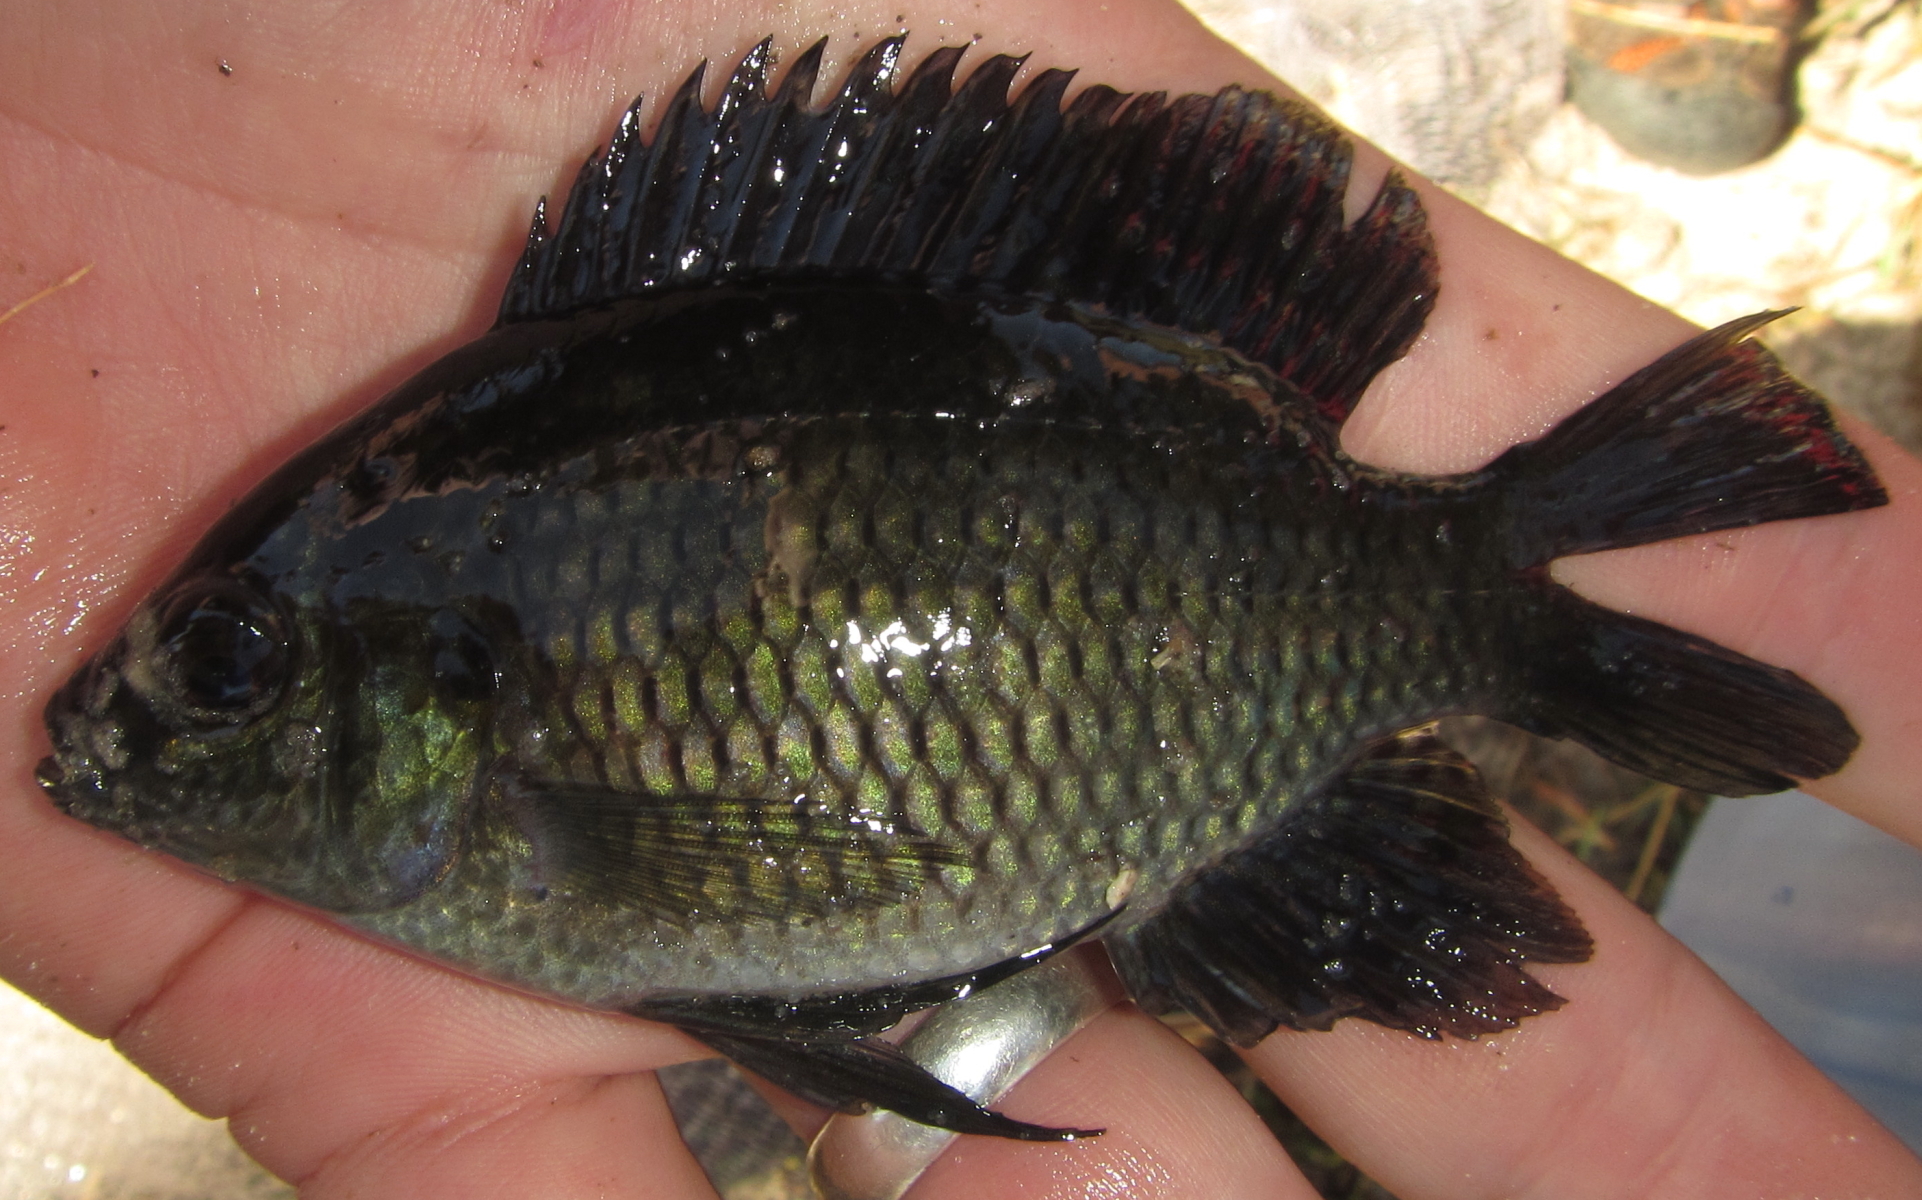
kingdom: Animalia
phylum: Chordata
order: Perciformes
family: Cichlidae
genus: Tilapia
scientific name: Tilapia sparrmanii
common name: Banded tilapia
